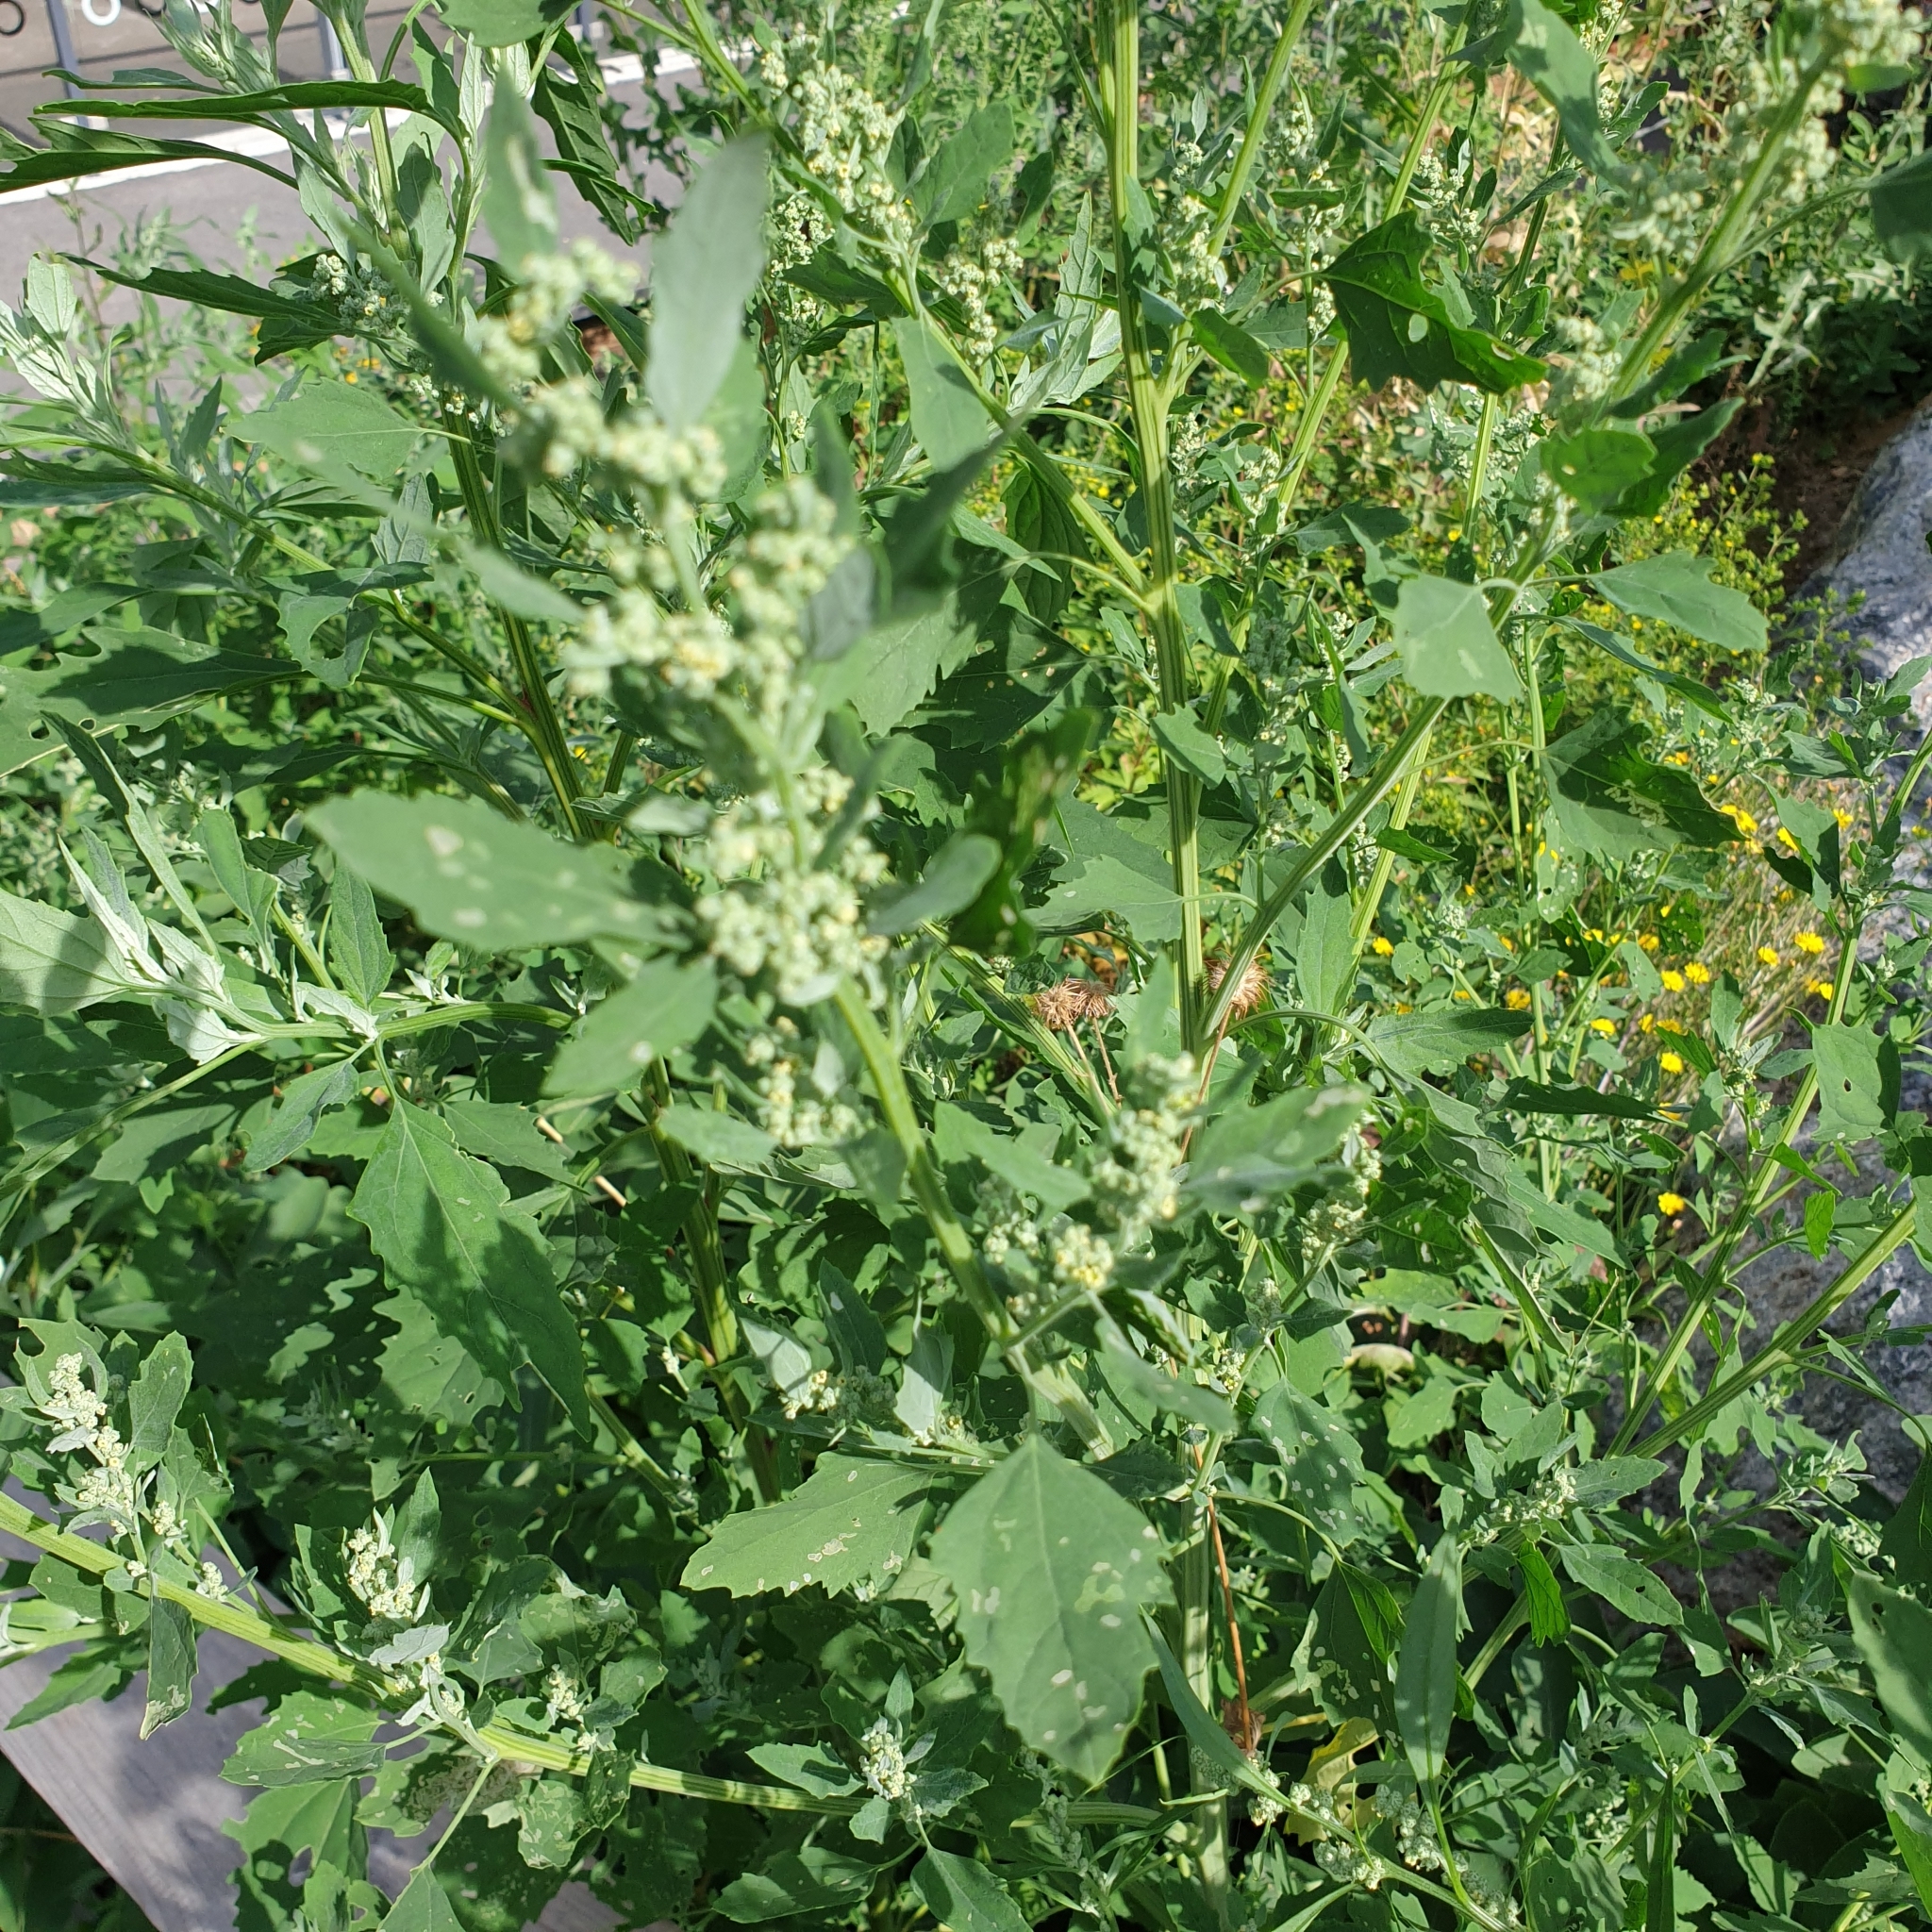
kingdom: Plantae
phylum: Tracheophyta
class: Magnoliopsida
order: Caryophyllales
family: Amaranthaceae
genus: Chenopodium
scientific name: Chenopodium album
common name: Fat-hen
